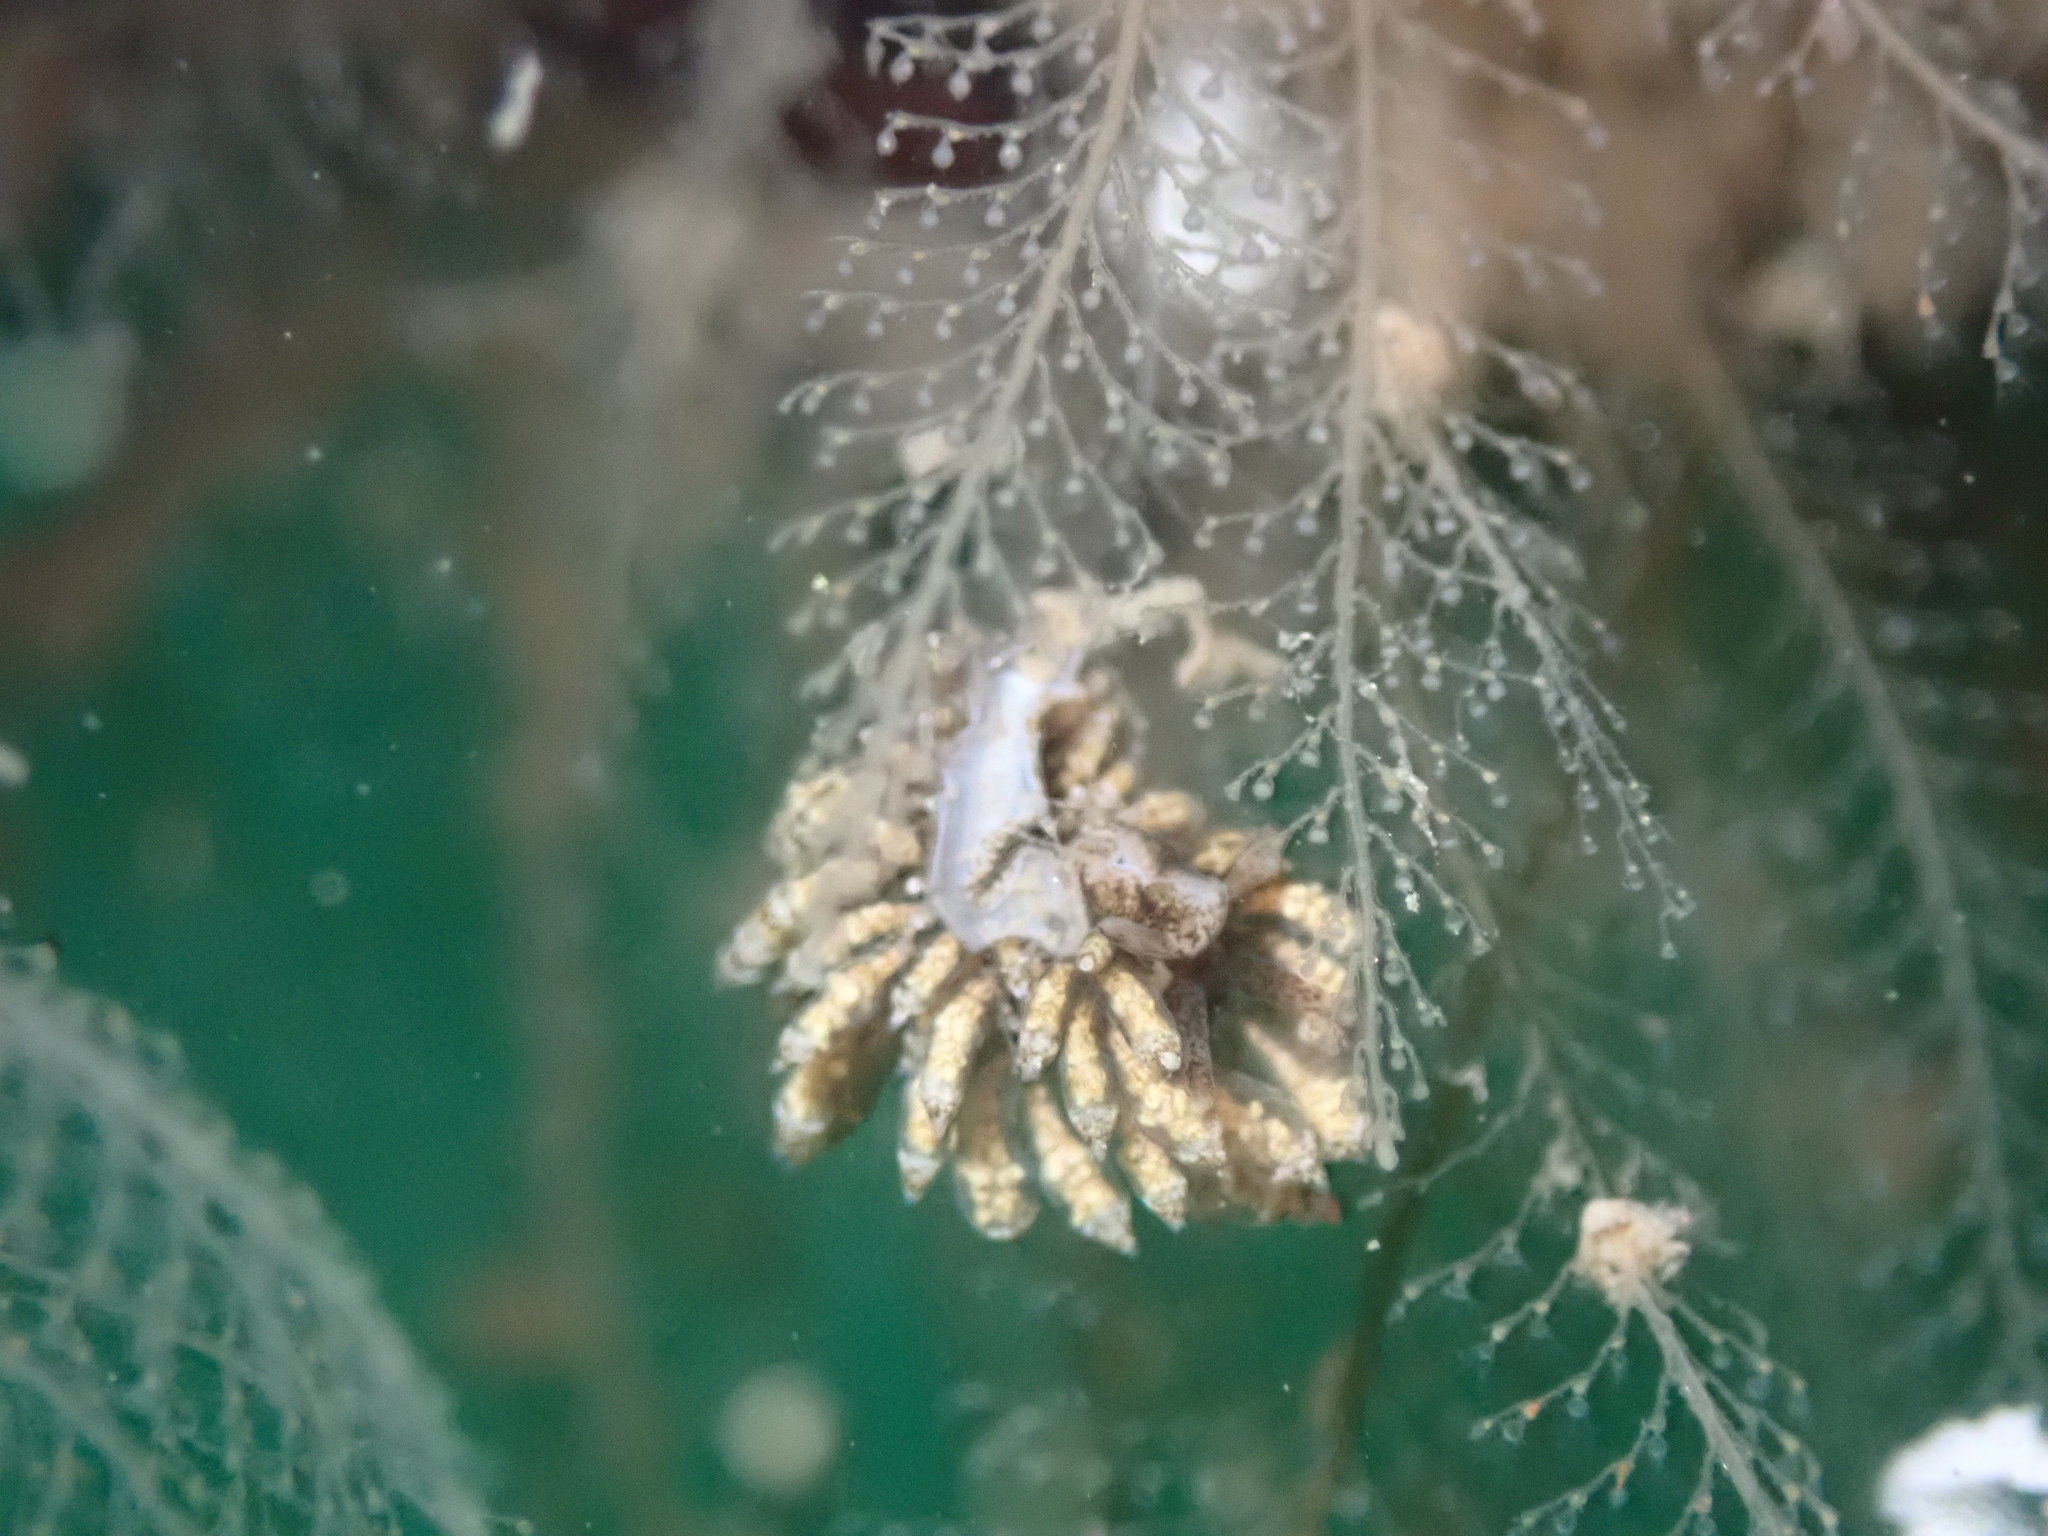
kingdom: Animalia
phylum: Mollusca
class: Gastropoda
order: Nudibranchia
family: Eubranchidae
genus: Eubranchus
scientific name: Eubranchus rustyus
